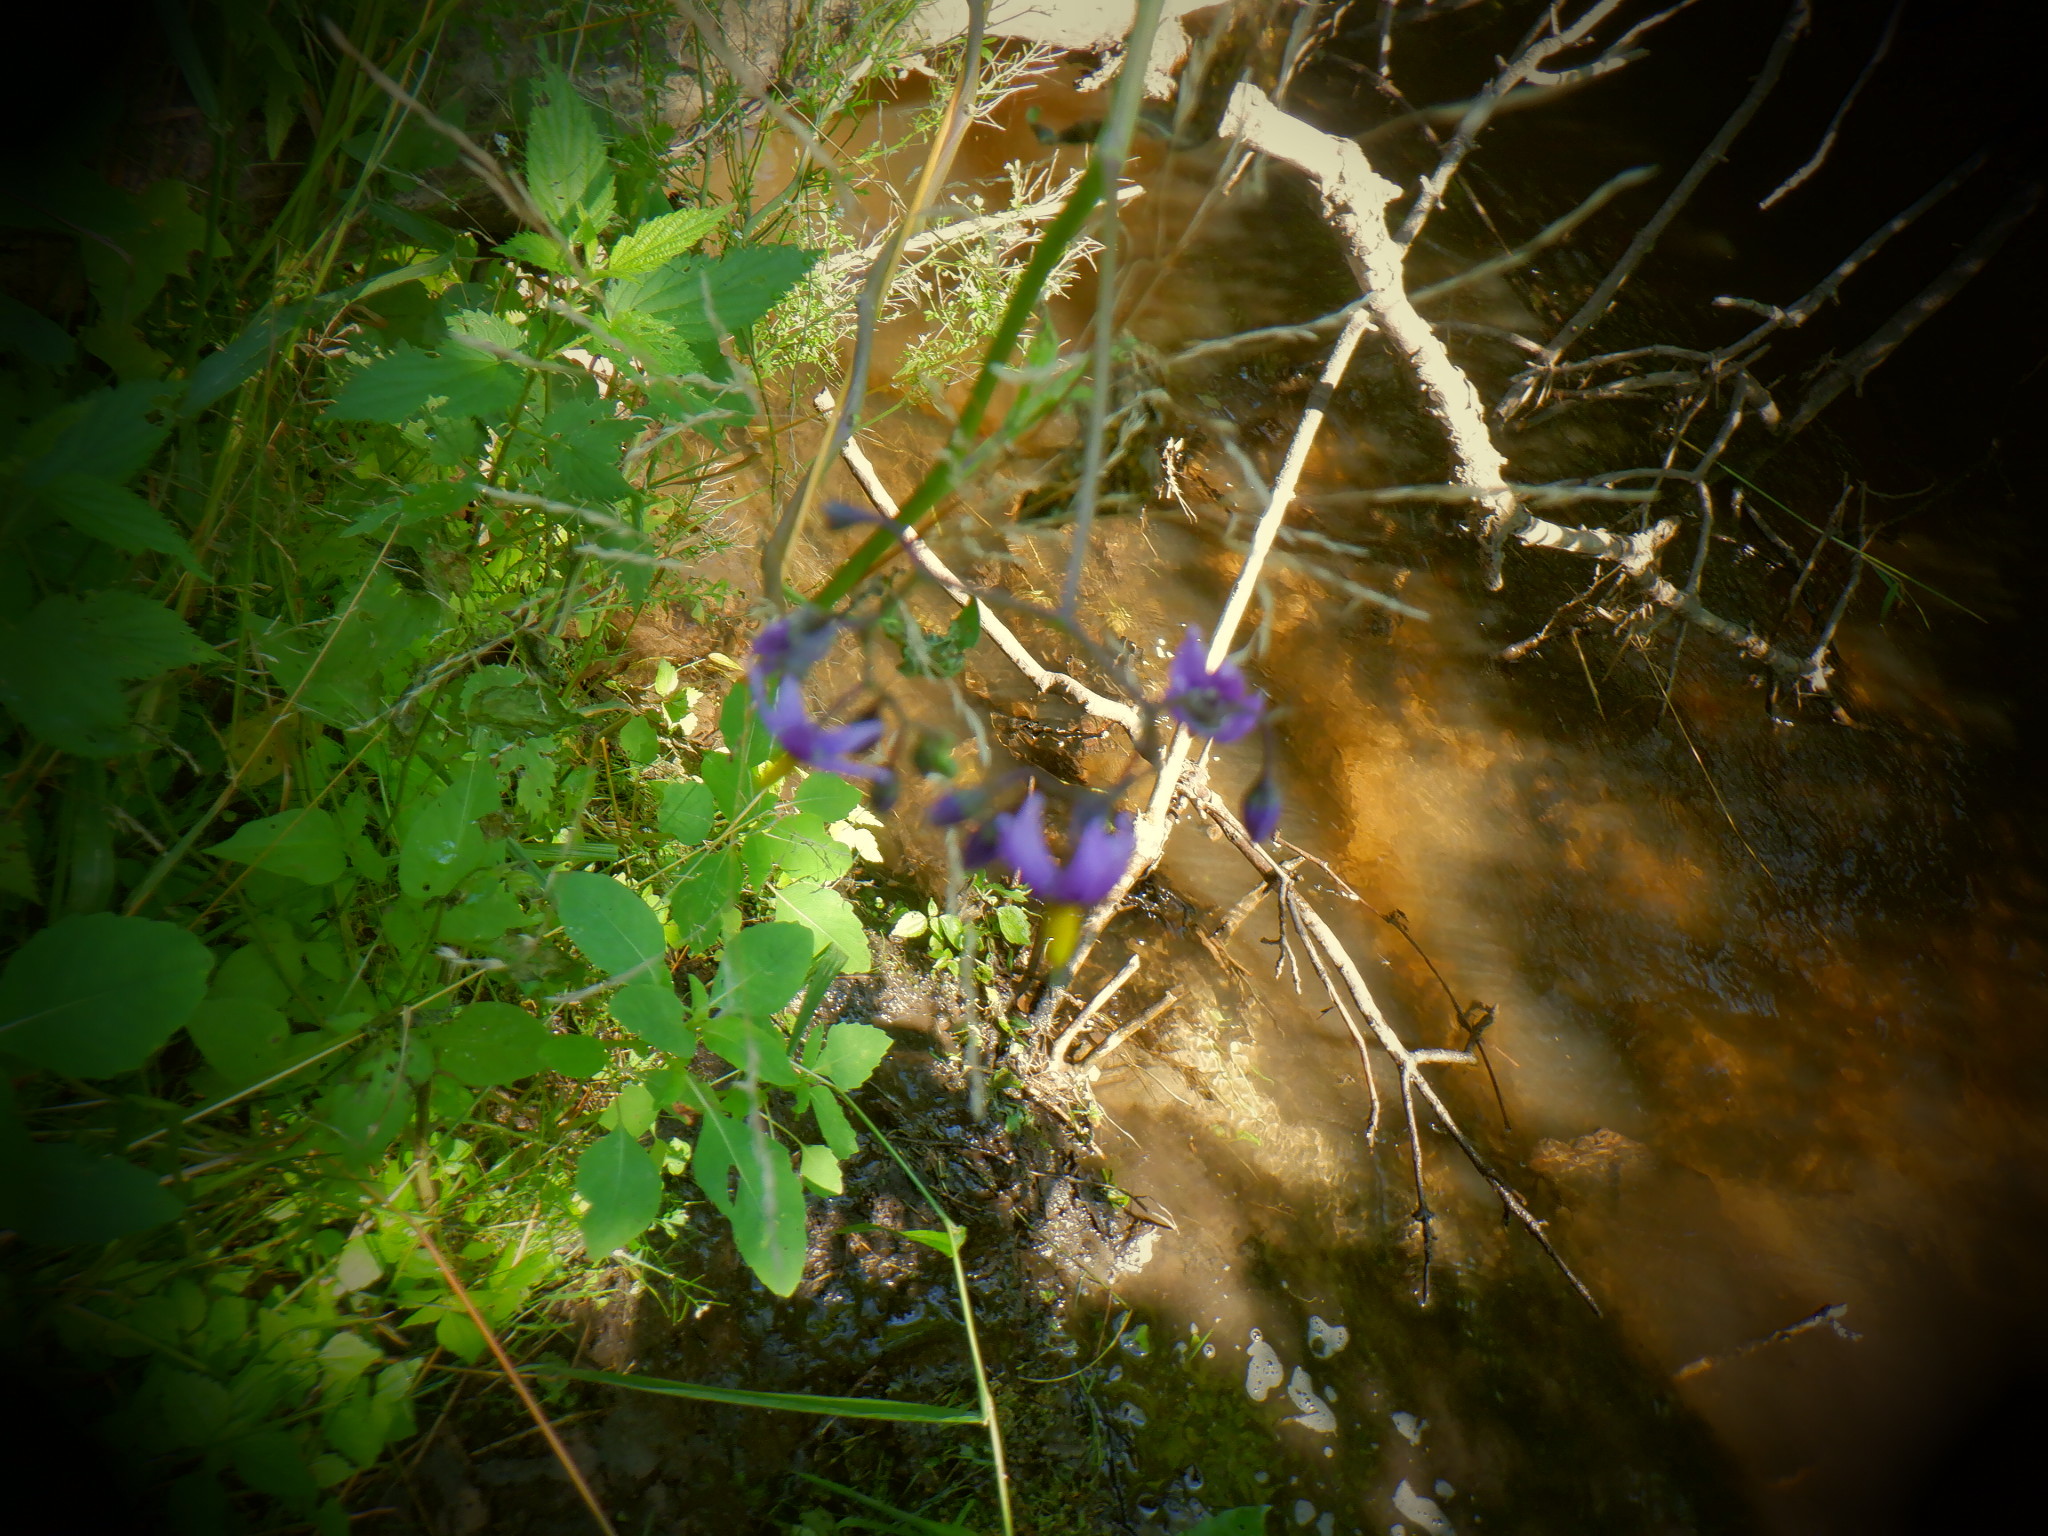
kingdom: Plantae
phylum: Tracheophyta
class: Magnoliopsida
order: Solanales
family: Solanaceae
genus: Solanum
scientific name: Solanum dulcamara
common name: Climbing nightshade
